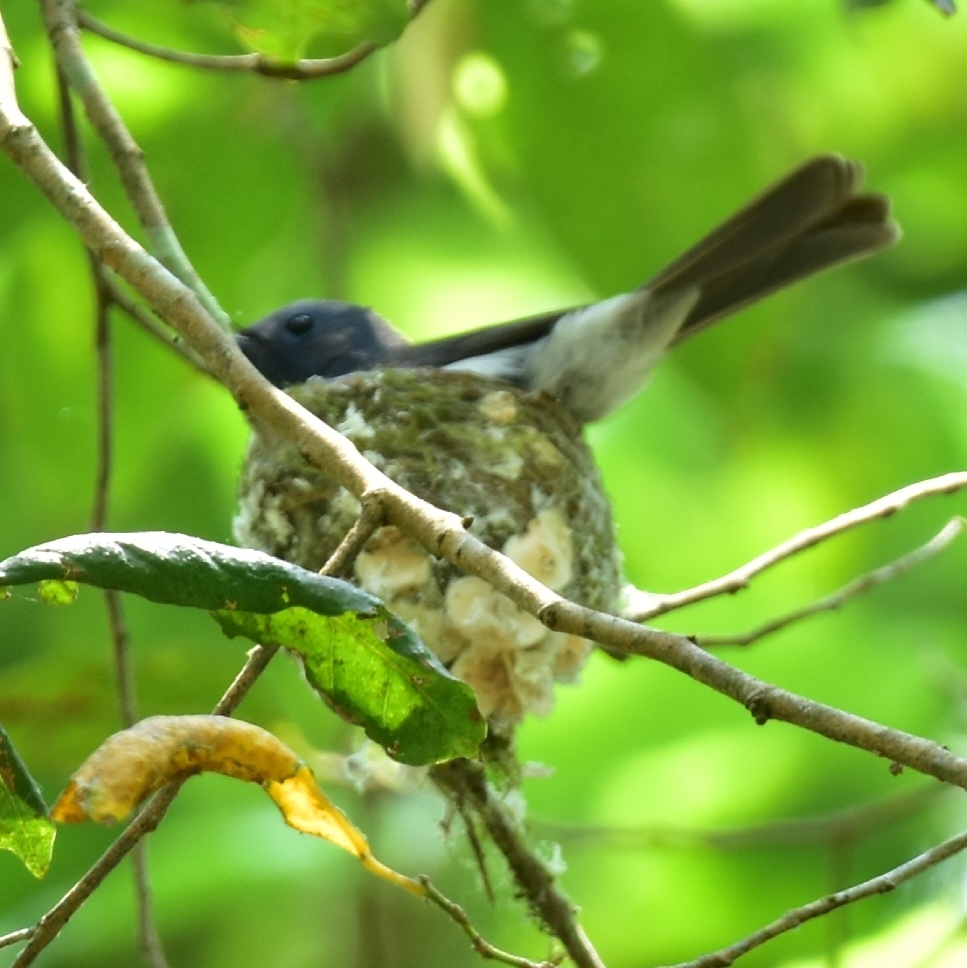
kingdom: Animalia
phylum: Chordata
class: Aves
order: Passeriformes
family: Monarchidae
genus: Hypothymis
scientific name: Hypothymis azurea
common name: Black-naped monarch
